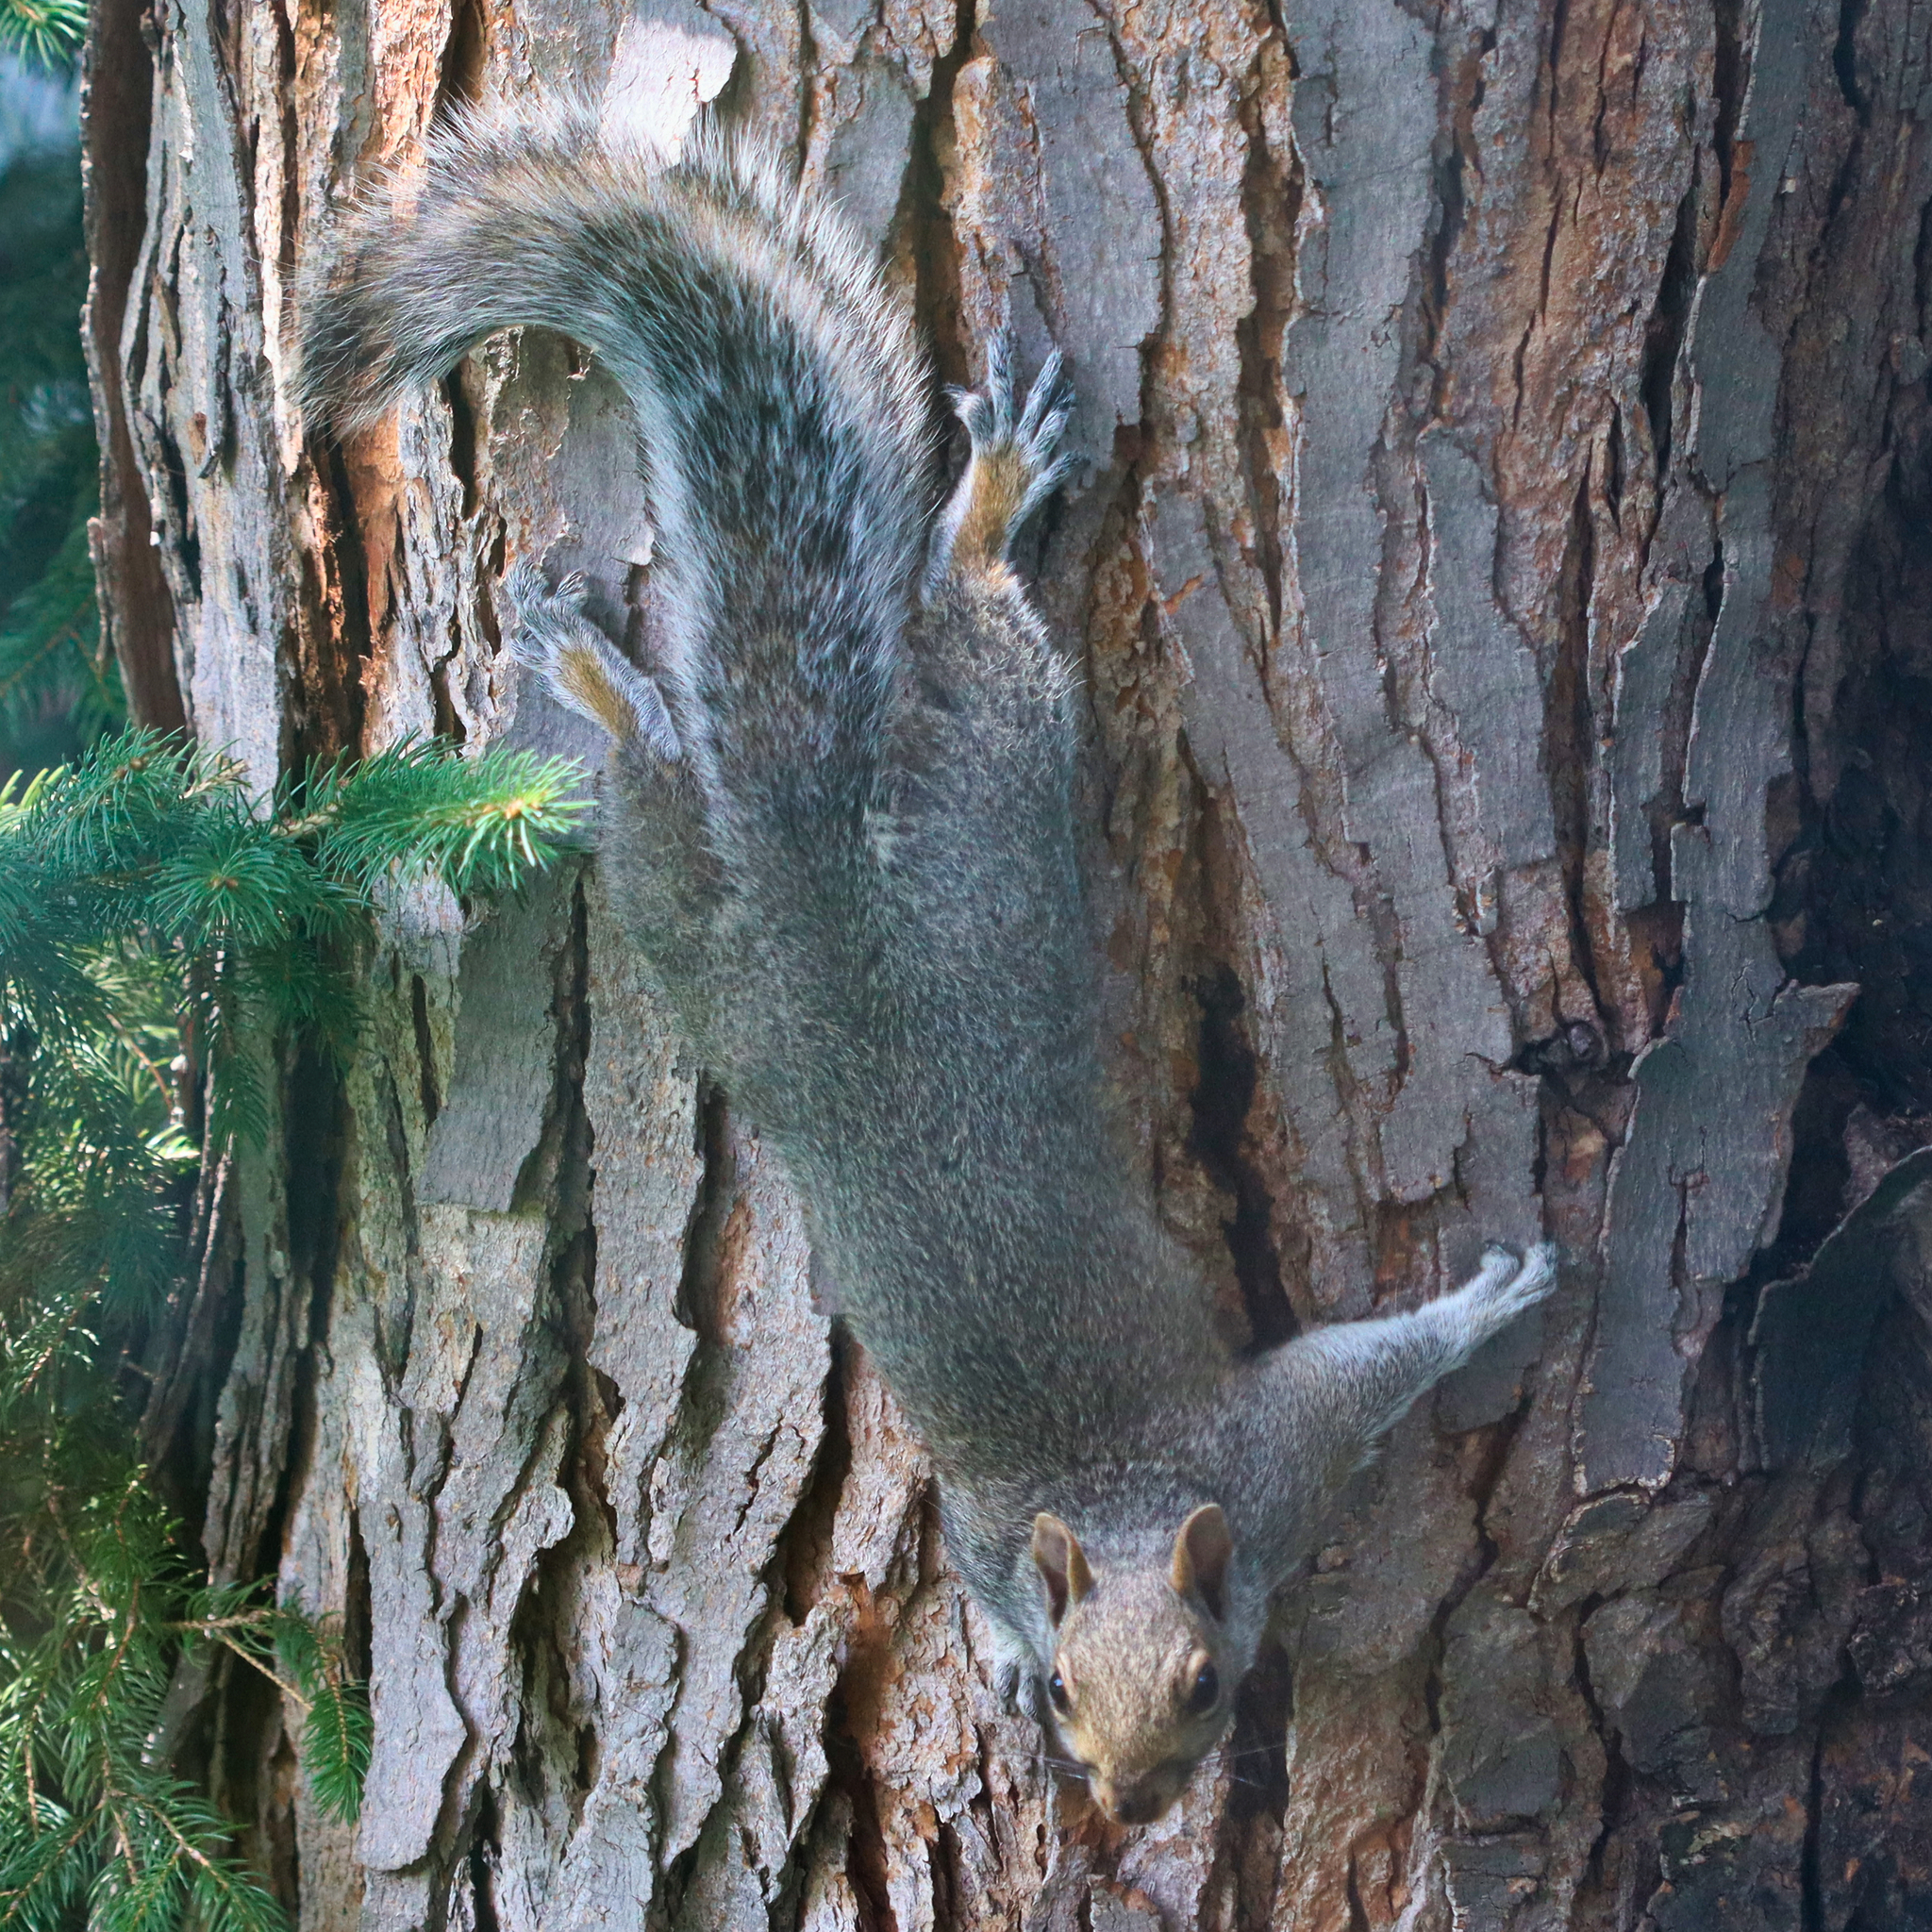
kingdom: Animalia
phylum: Chordata
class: Mammalia
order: Rodentia
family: Sciuridae
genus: Sciurus
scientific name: Sciurus carolinensis
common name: Eastern gray squirrel
